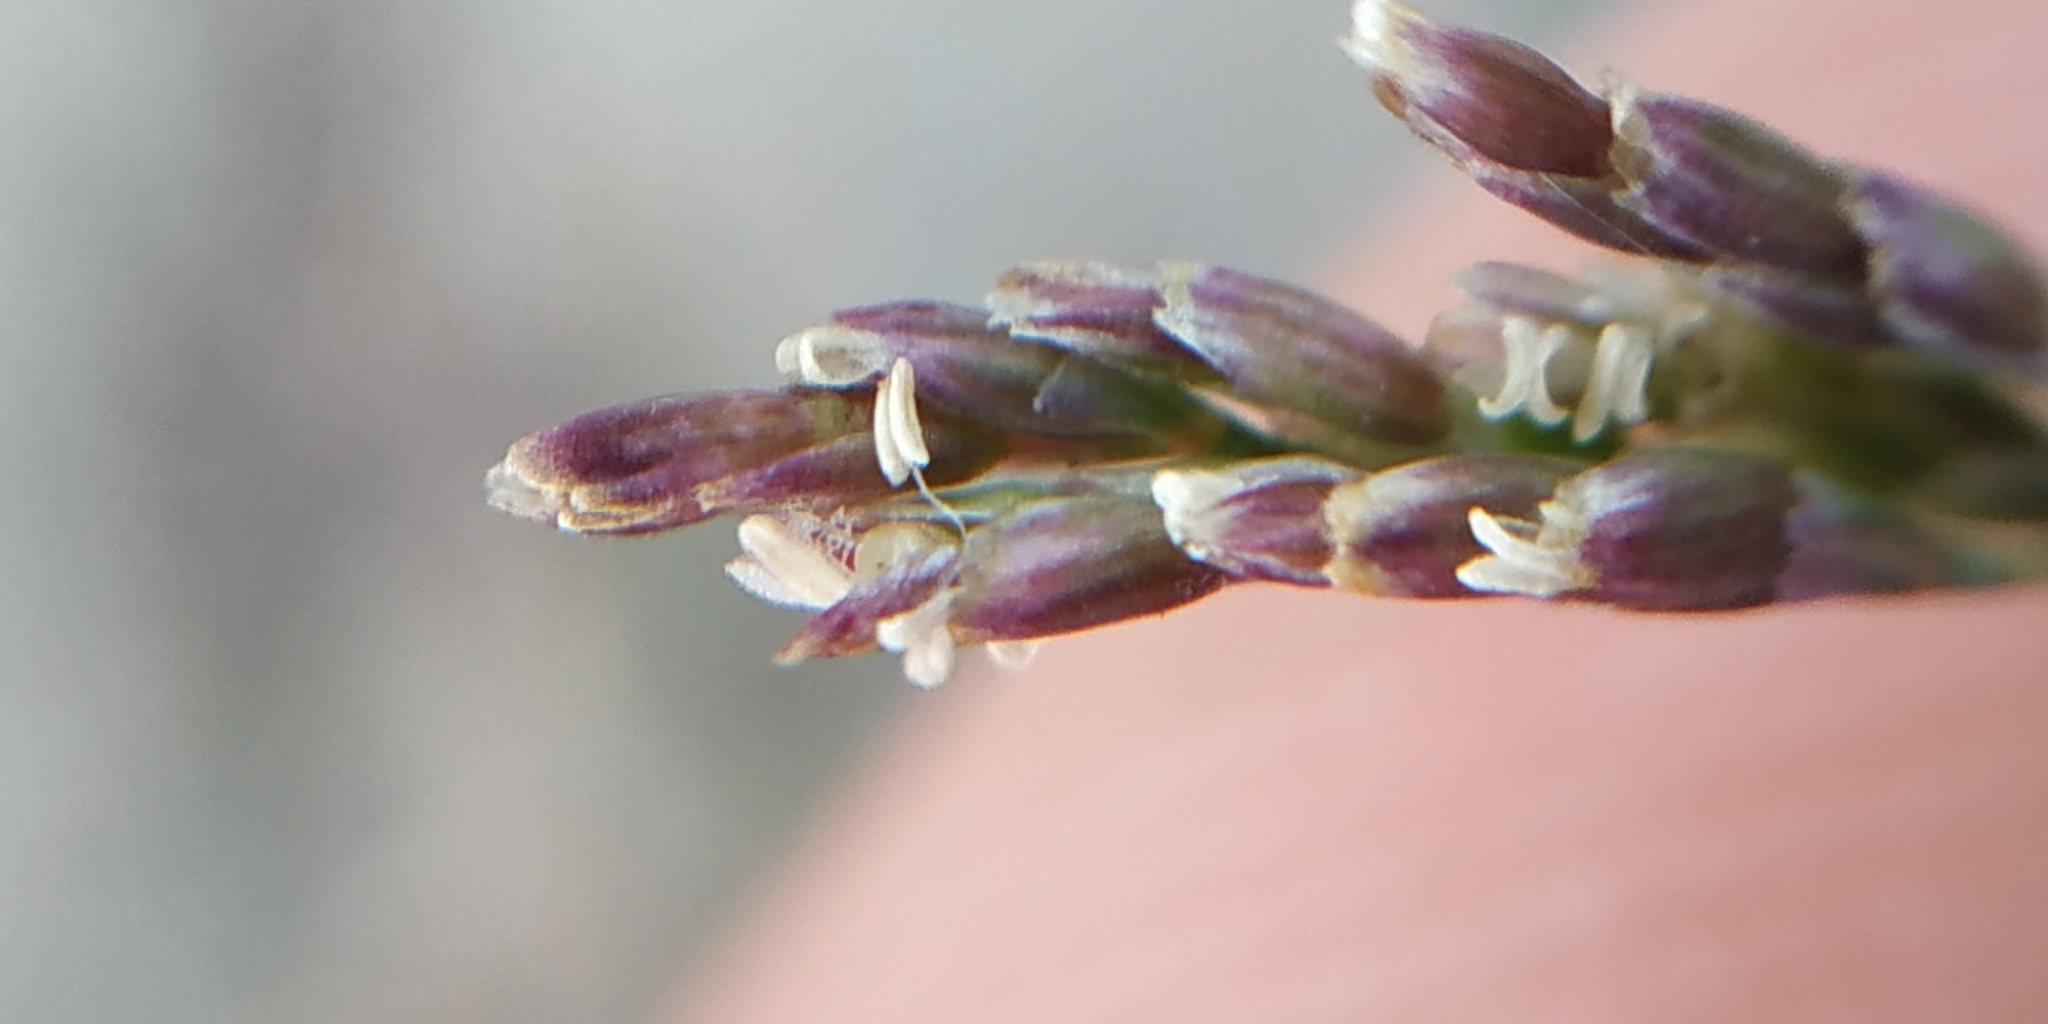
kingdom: Plantae
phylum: Tracheophyta
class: Liliopsida
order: Poales
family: Poaceae
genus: Puccinellia
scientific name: Puccinellia distans
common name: Weeping alkaligrass
